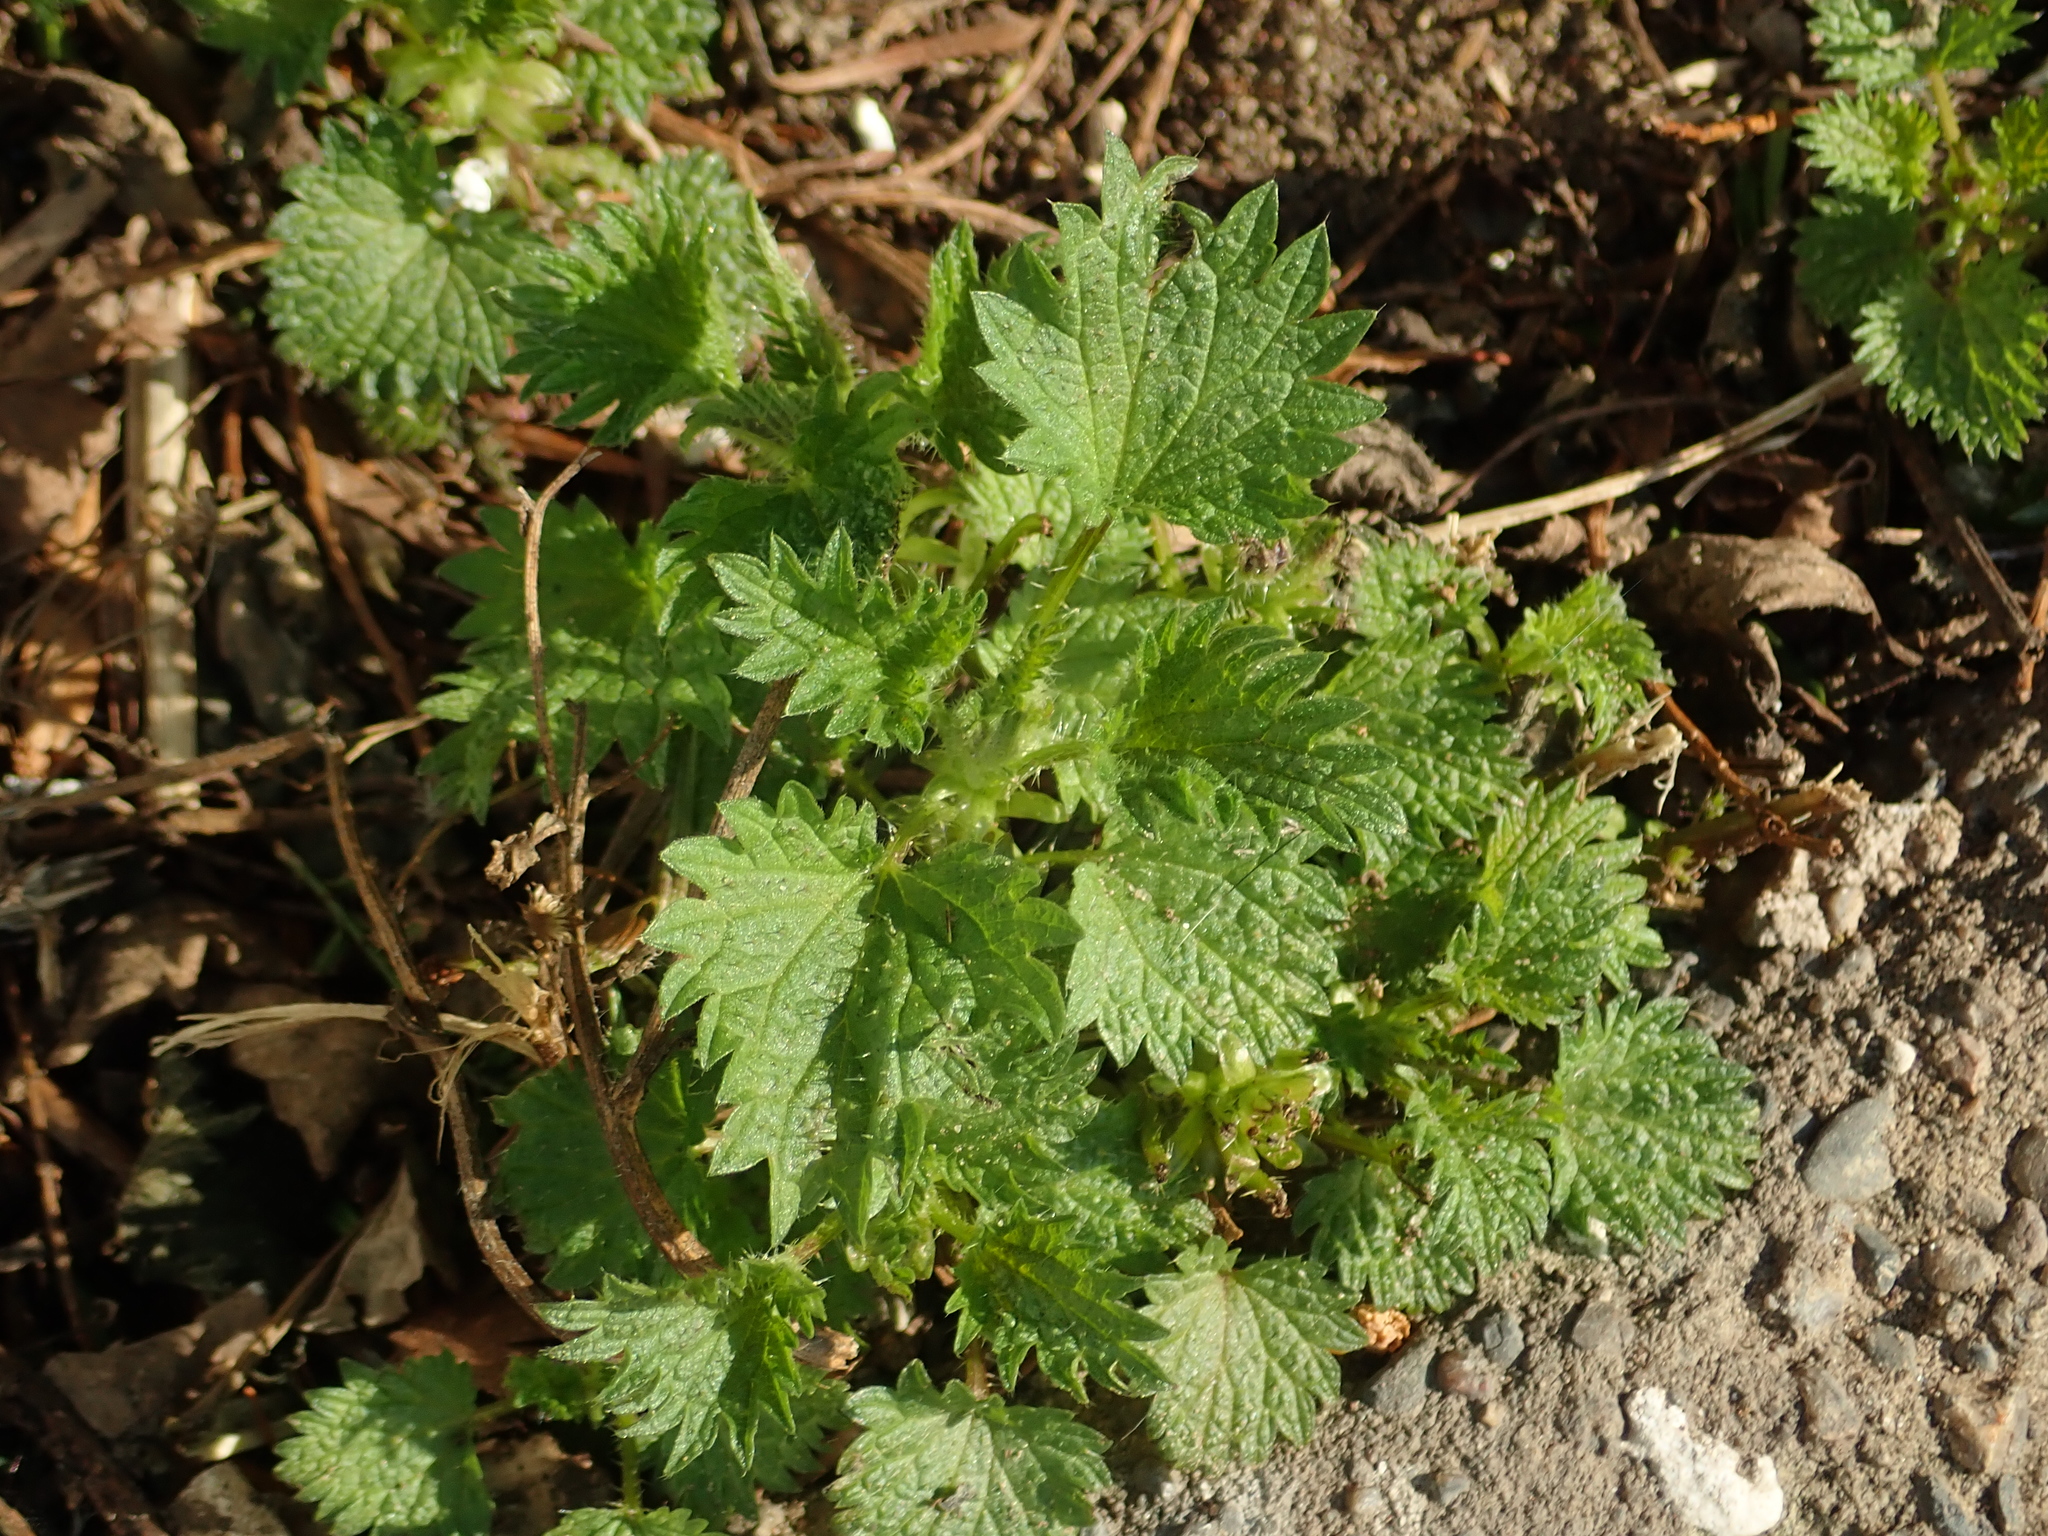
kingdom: Plantae
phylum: Tracheophyta
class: Magnoliopsida
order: Rosales
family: Urticaceae
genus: Urtica
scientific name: Urtica dioica
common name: Common nettle
